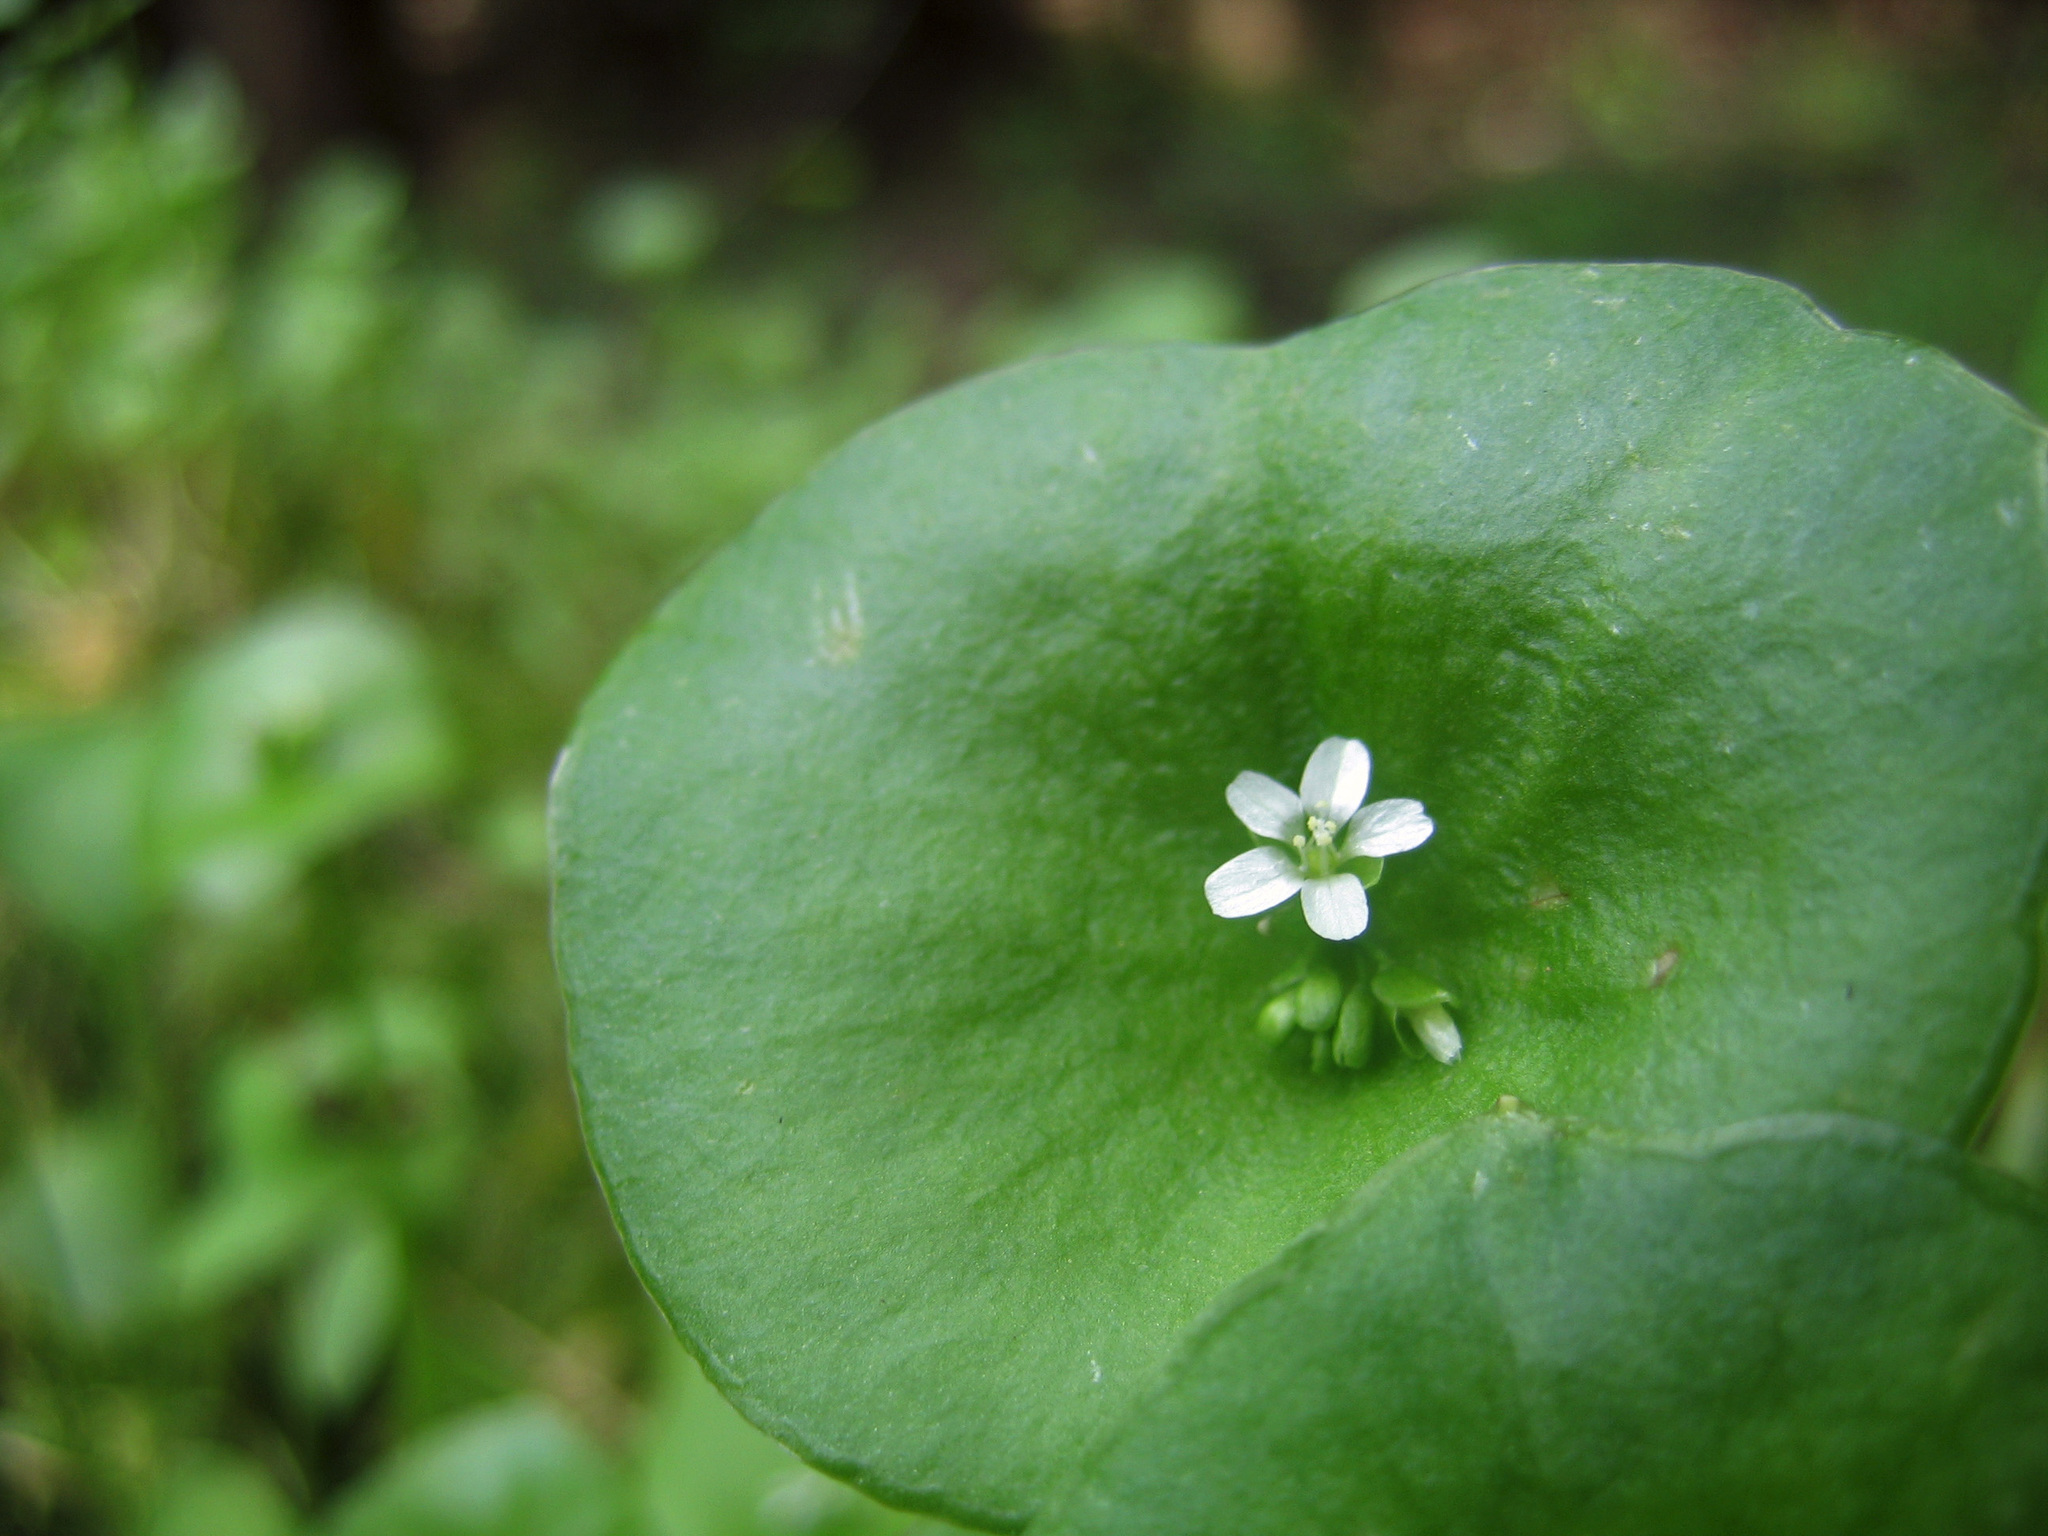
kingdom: Plantae
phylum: Tracheophyta
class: Magnoliopsida
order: Caryophyllales
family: Montiaceae
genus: Claytonia
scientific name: Claytonia perfoliata
